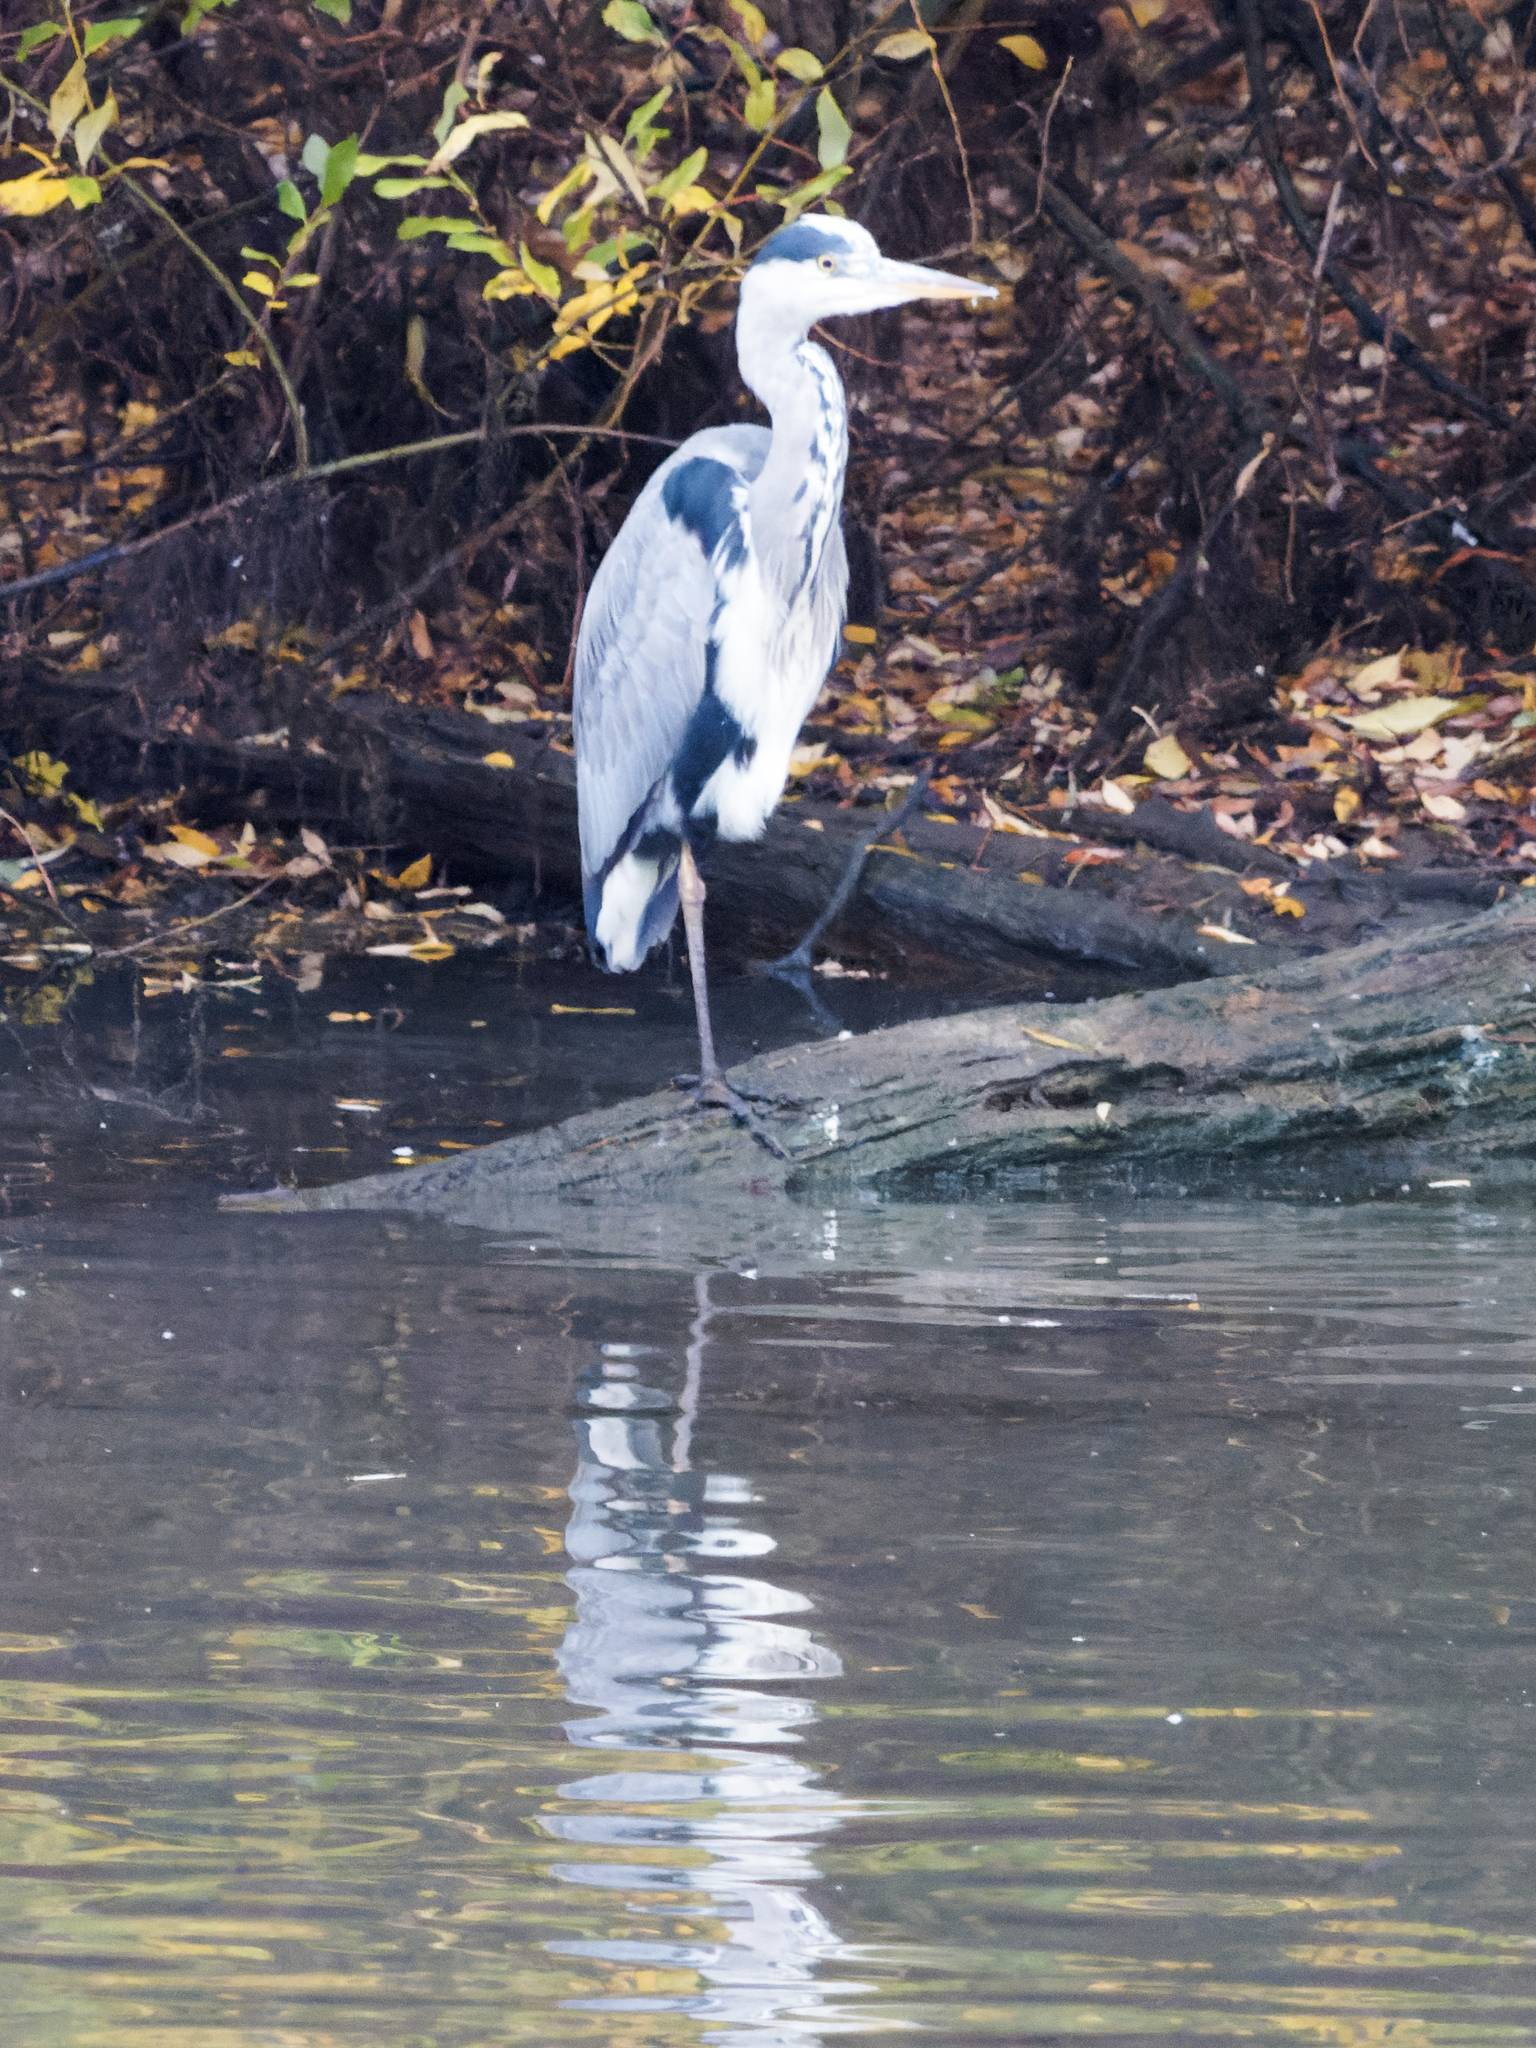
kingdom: Animalia
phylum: Chordata
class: Aves
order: Pelecaniformes
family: Ardeidae
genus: Ardea
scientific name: Ardea cinerea
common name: Grey heron
